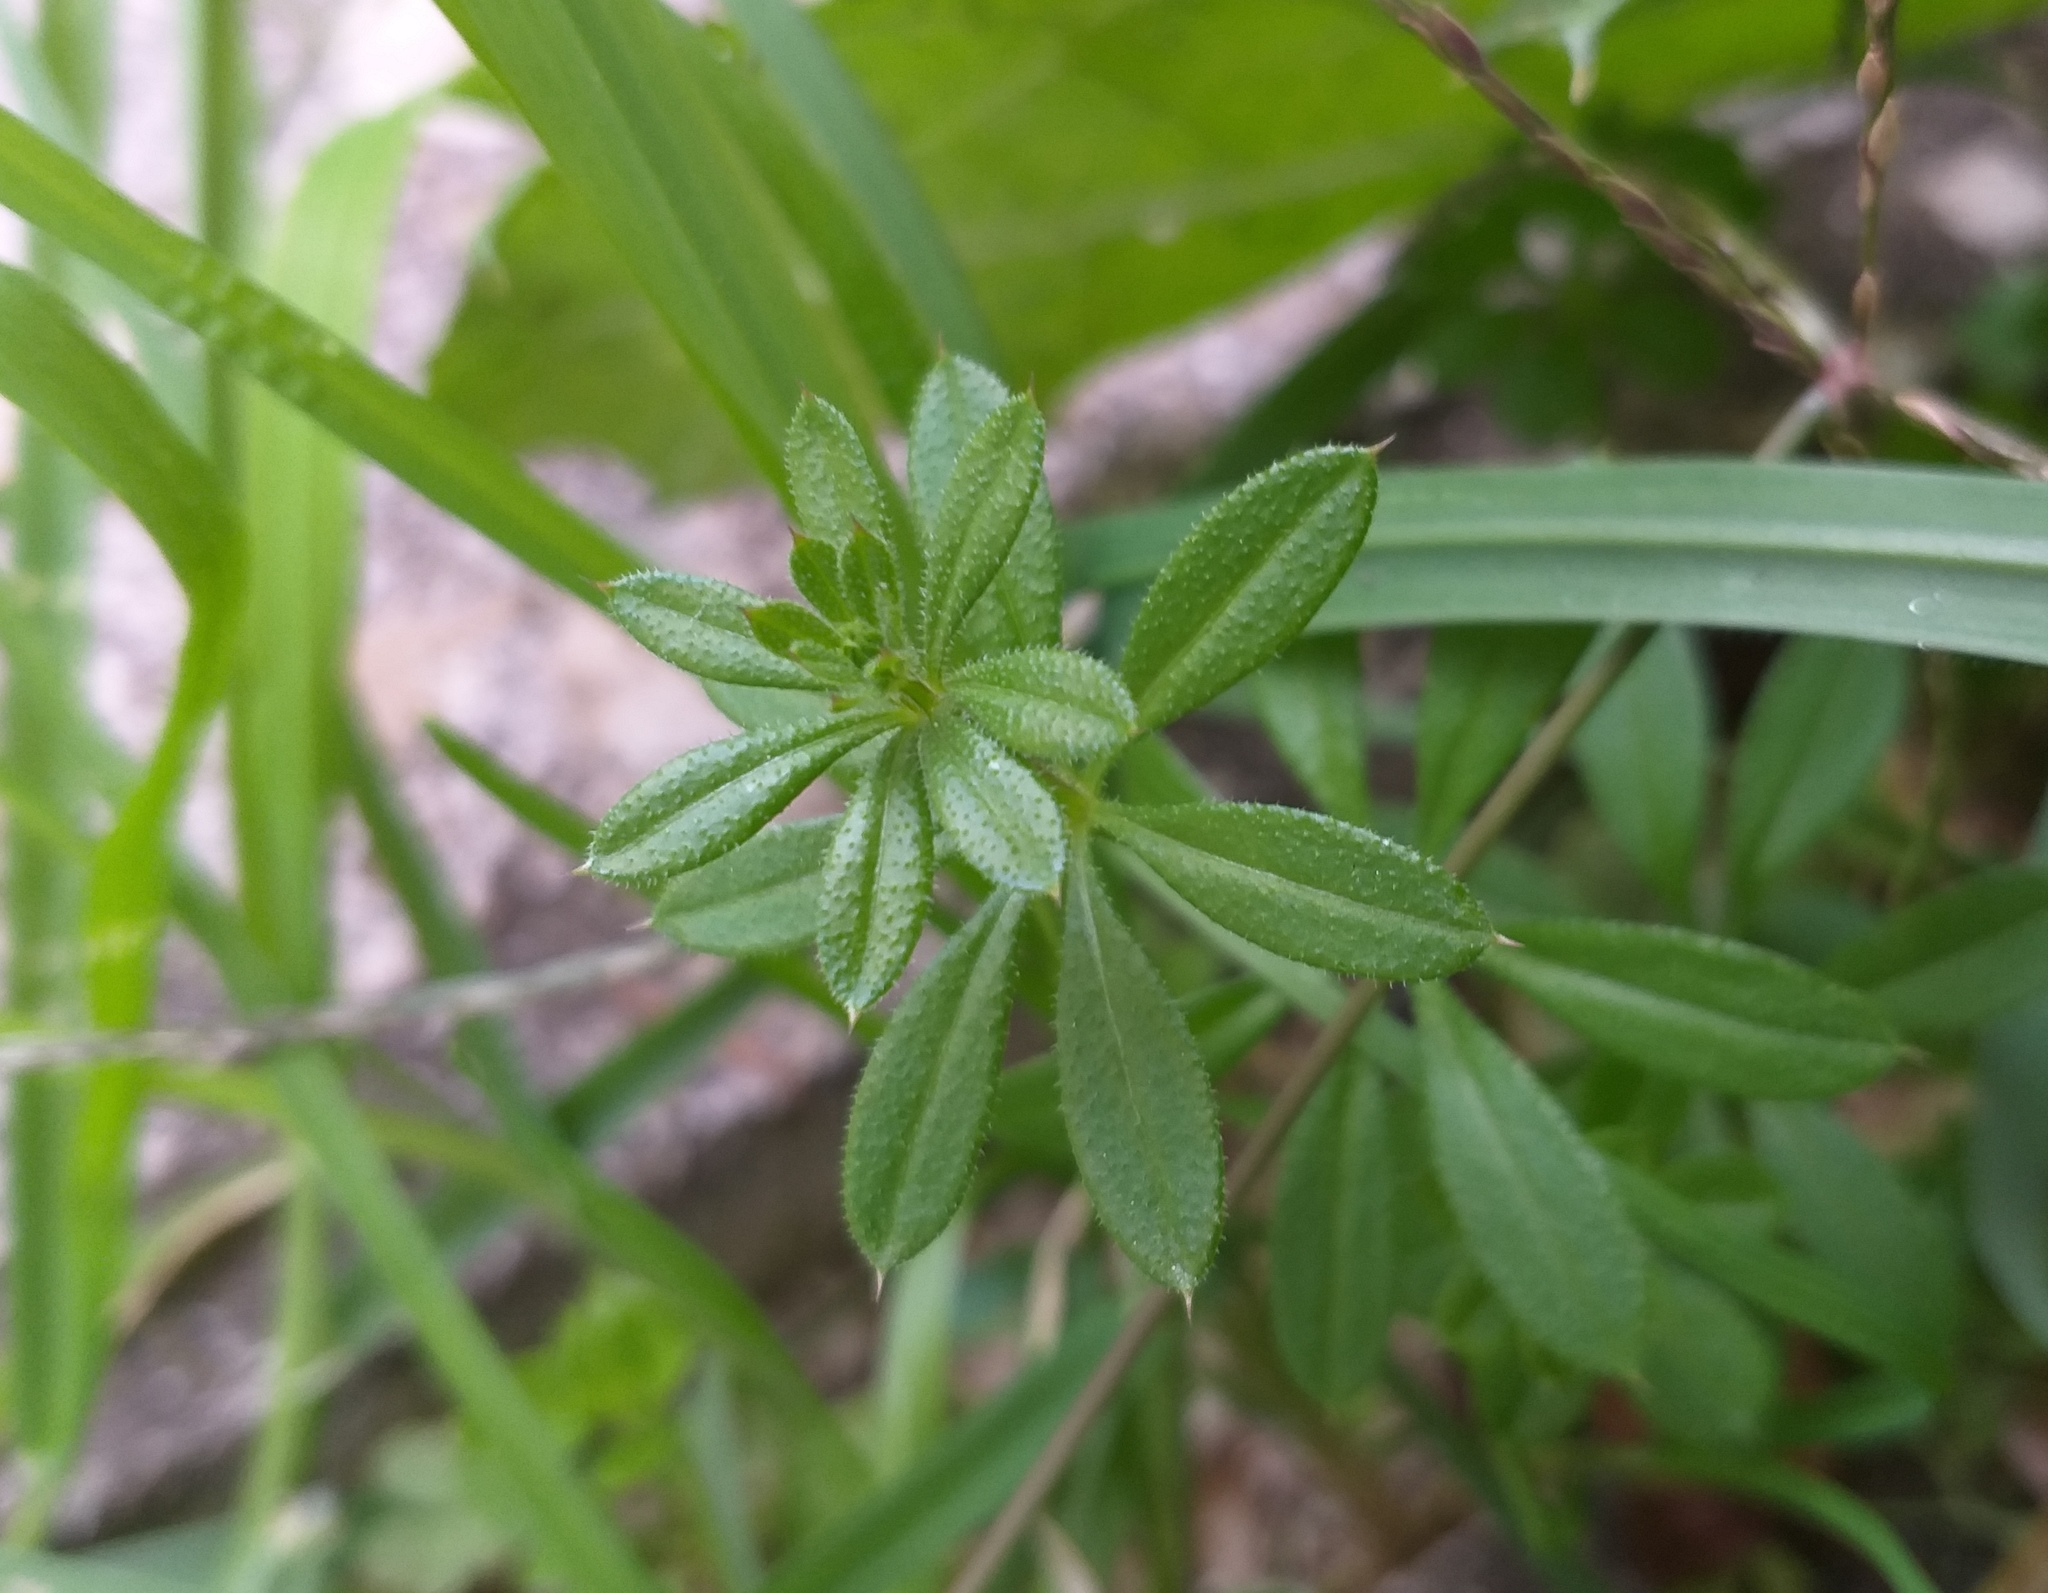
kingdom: Plantae
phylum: Tracheophyta
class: Magnoliopsida
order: Gentianales
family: Rubiaceae
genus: Galium
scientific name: Galium aparine
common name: Cleavers
